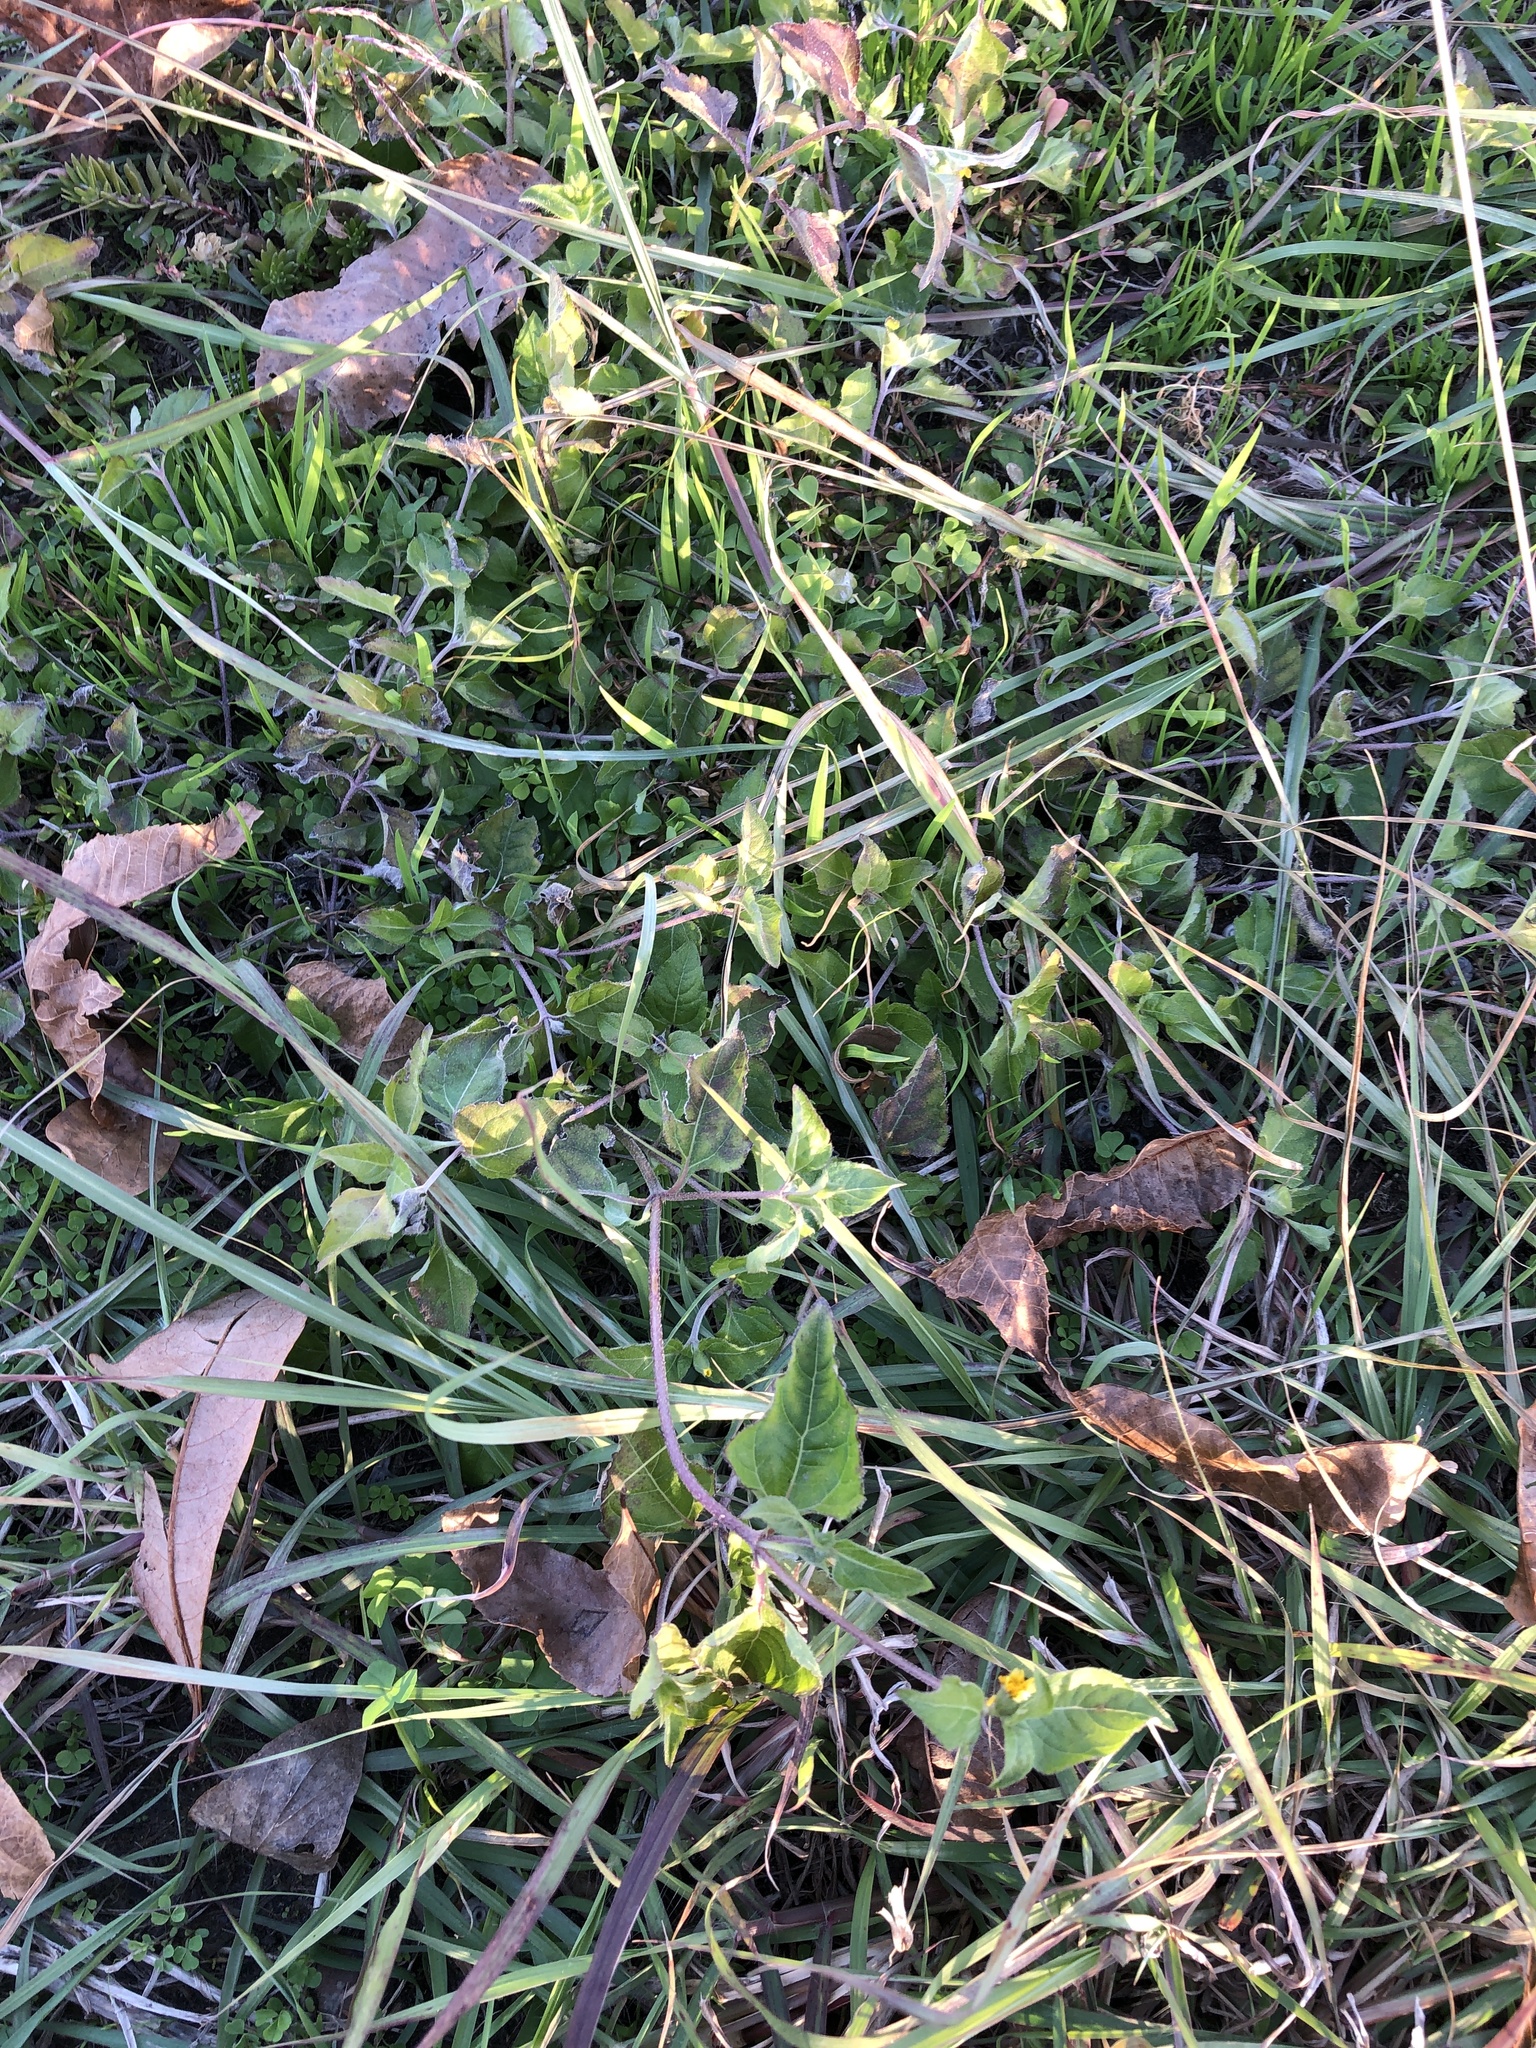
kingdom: Plantae
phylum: Tracheophyta
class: Magnoliopsida
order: Asterales
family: Asteraceae
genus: Calyptocarpus
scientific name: Calyptocarpus vialis
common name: Straggler daisy
